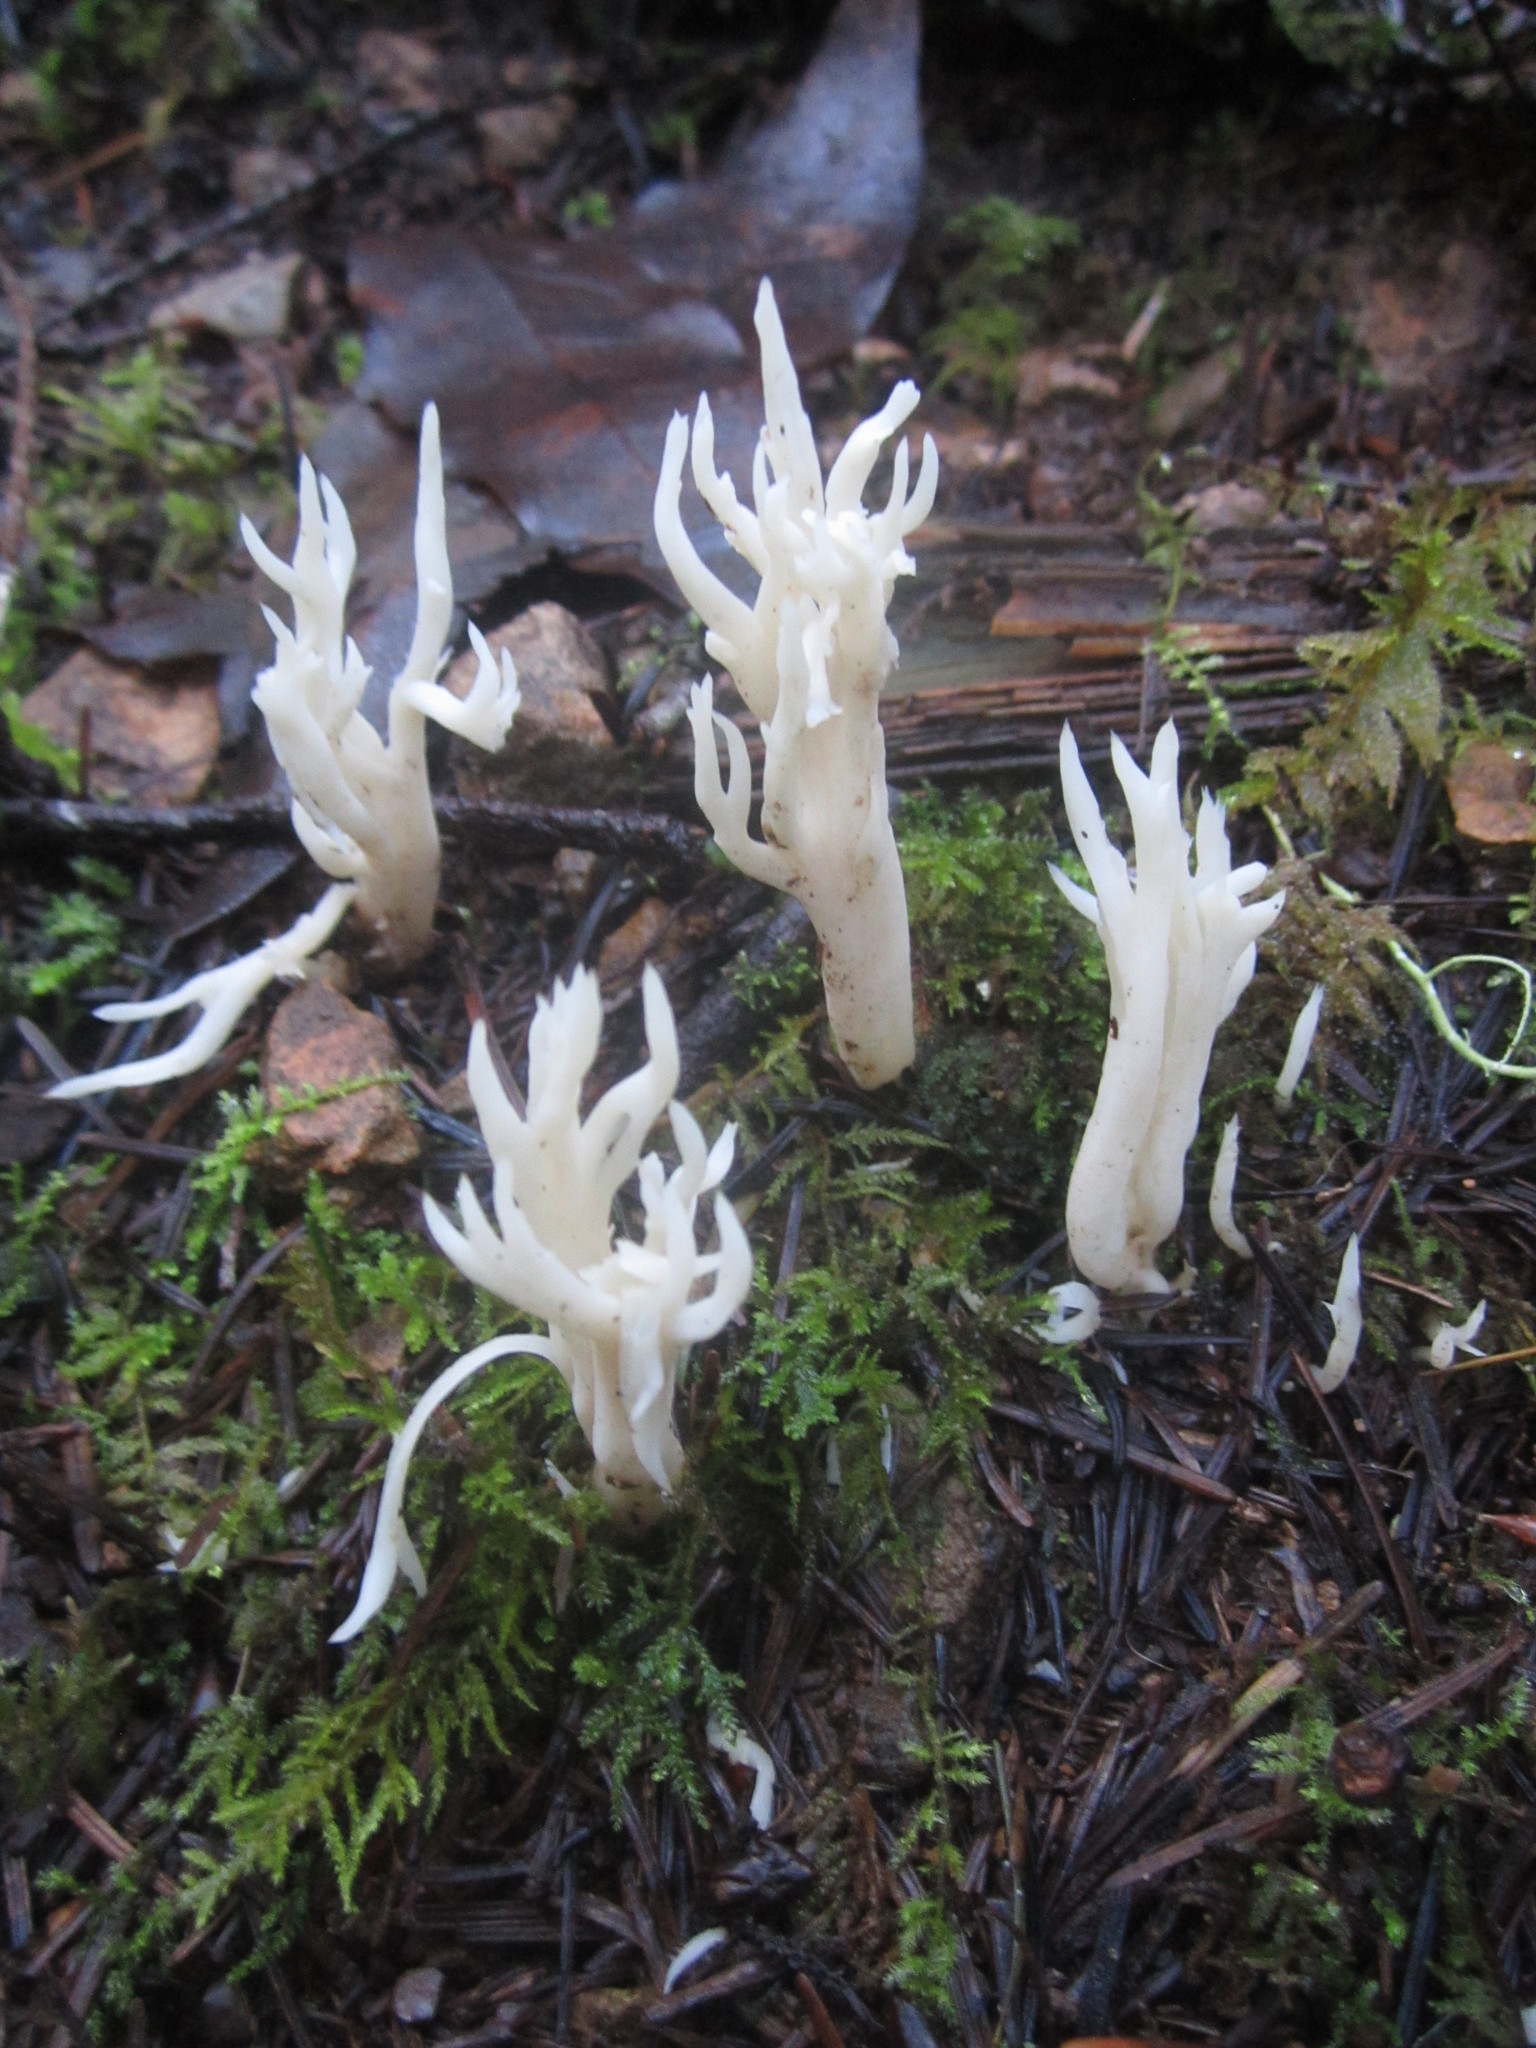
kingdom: Fungi
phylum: Basidiomycota
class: Agaricomycetes
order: Cantharellales
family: Hydnaceae
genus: Clavulina
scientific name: Clavulina coralloides
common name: Crested coral
